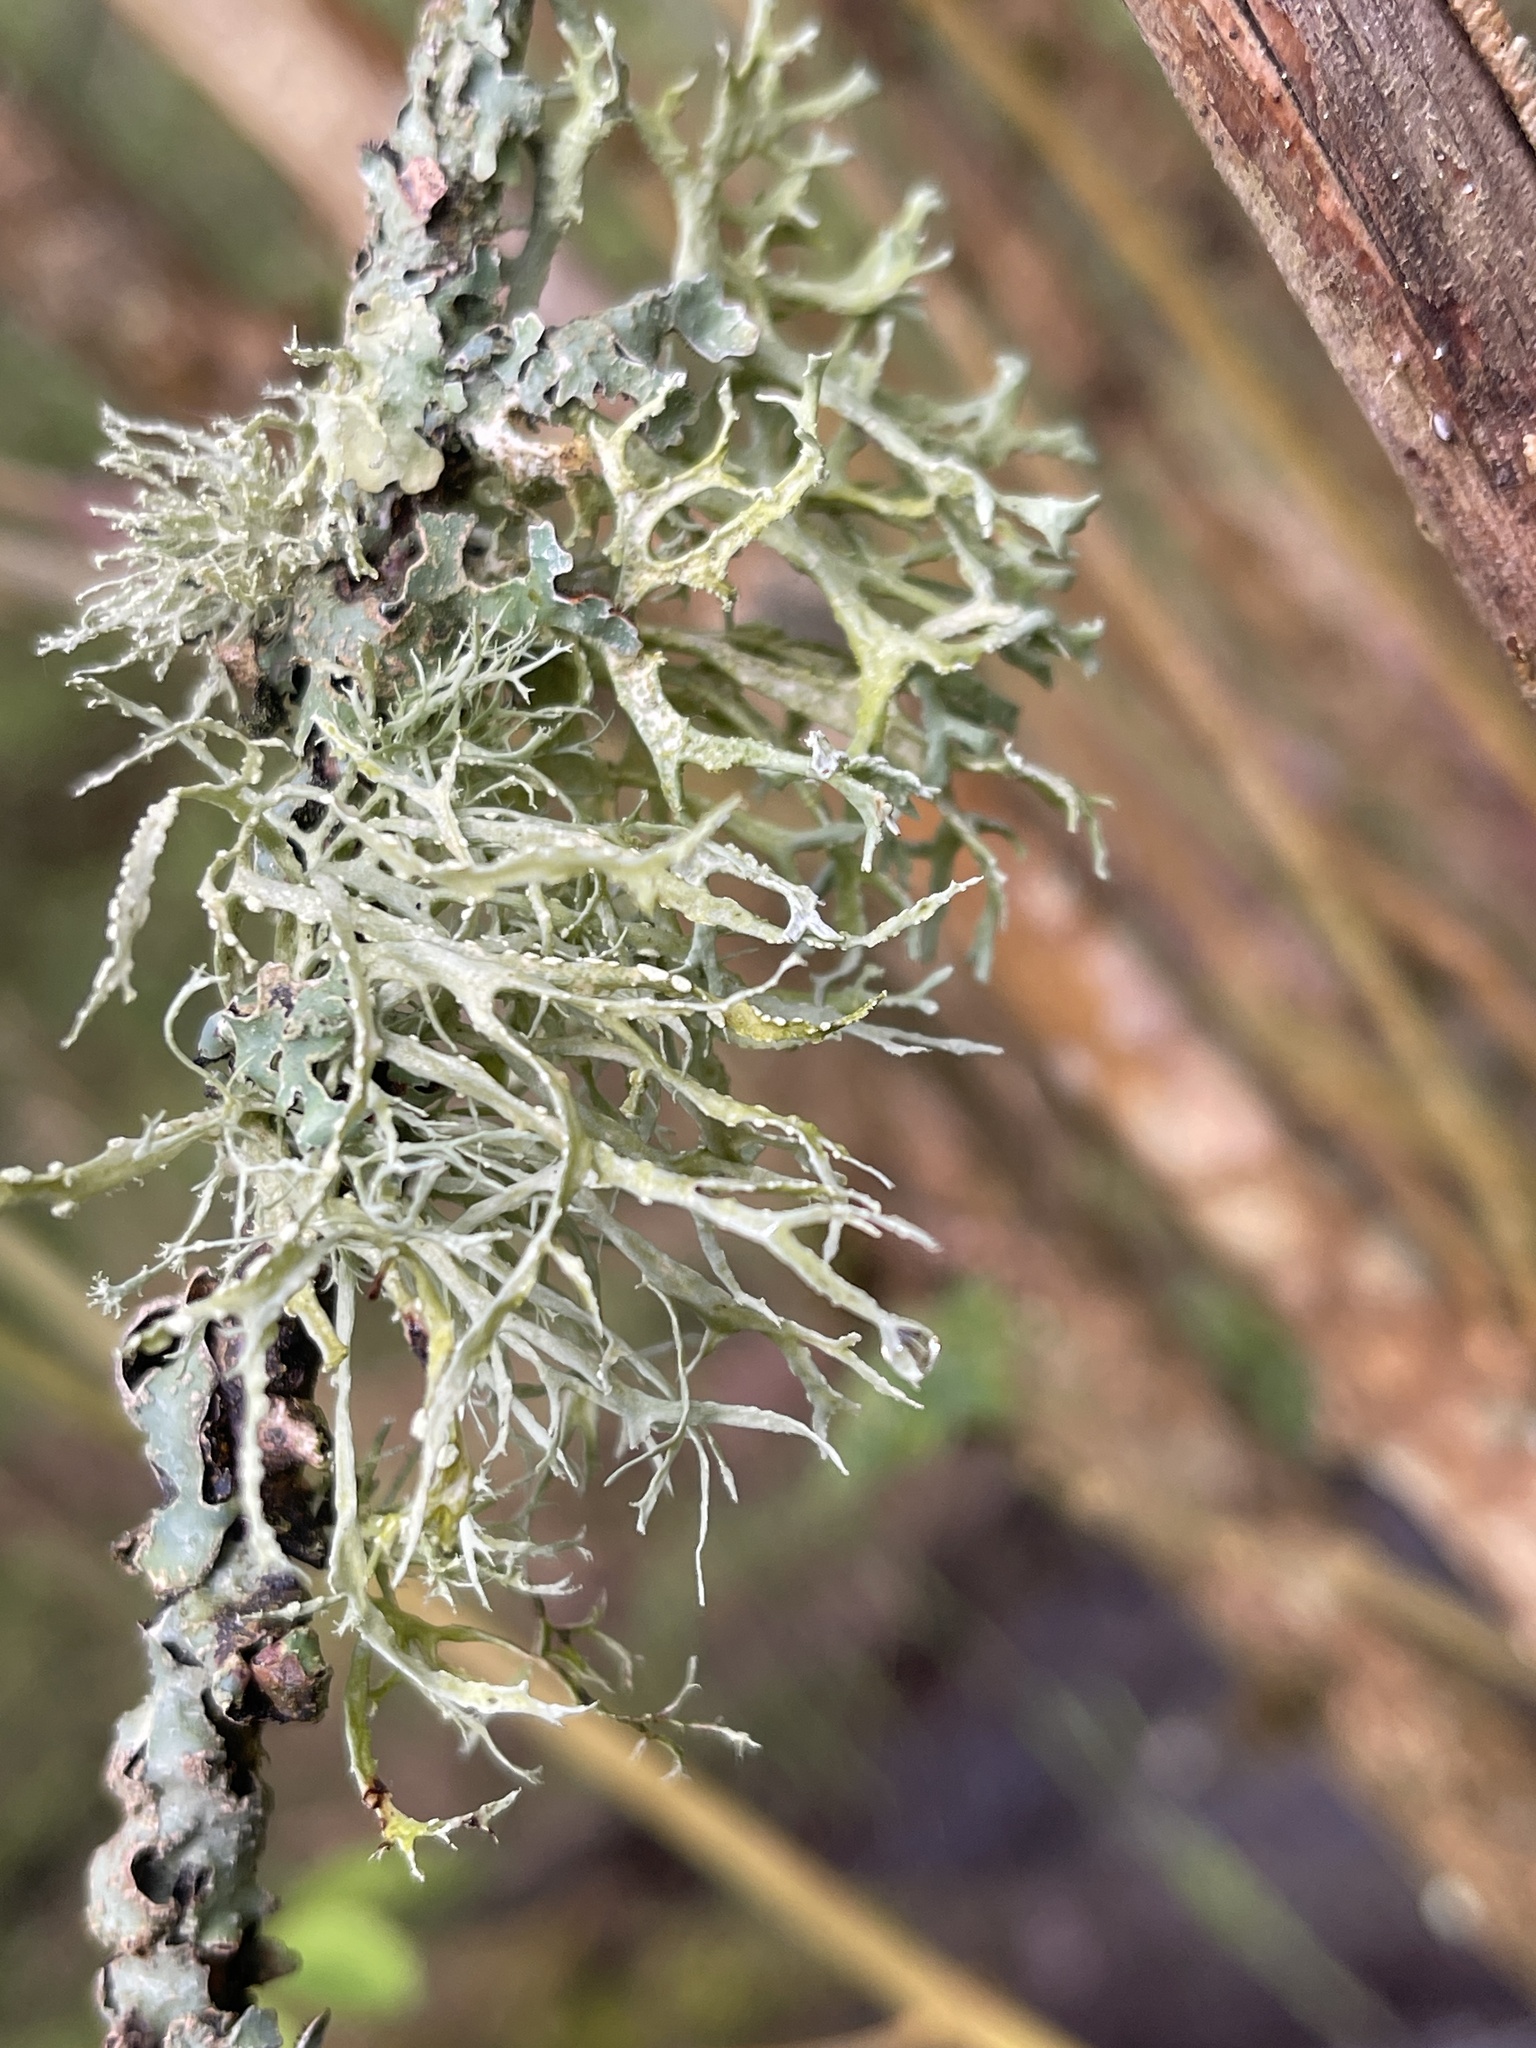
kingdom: Fungi
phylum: Ascomycota
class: Lecanoromycetes
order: Lecanorales
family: Parmeliaceae
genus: Evernia
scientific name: Evernia prunastri
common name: Oak moss
